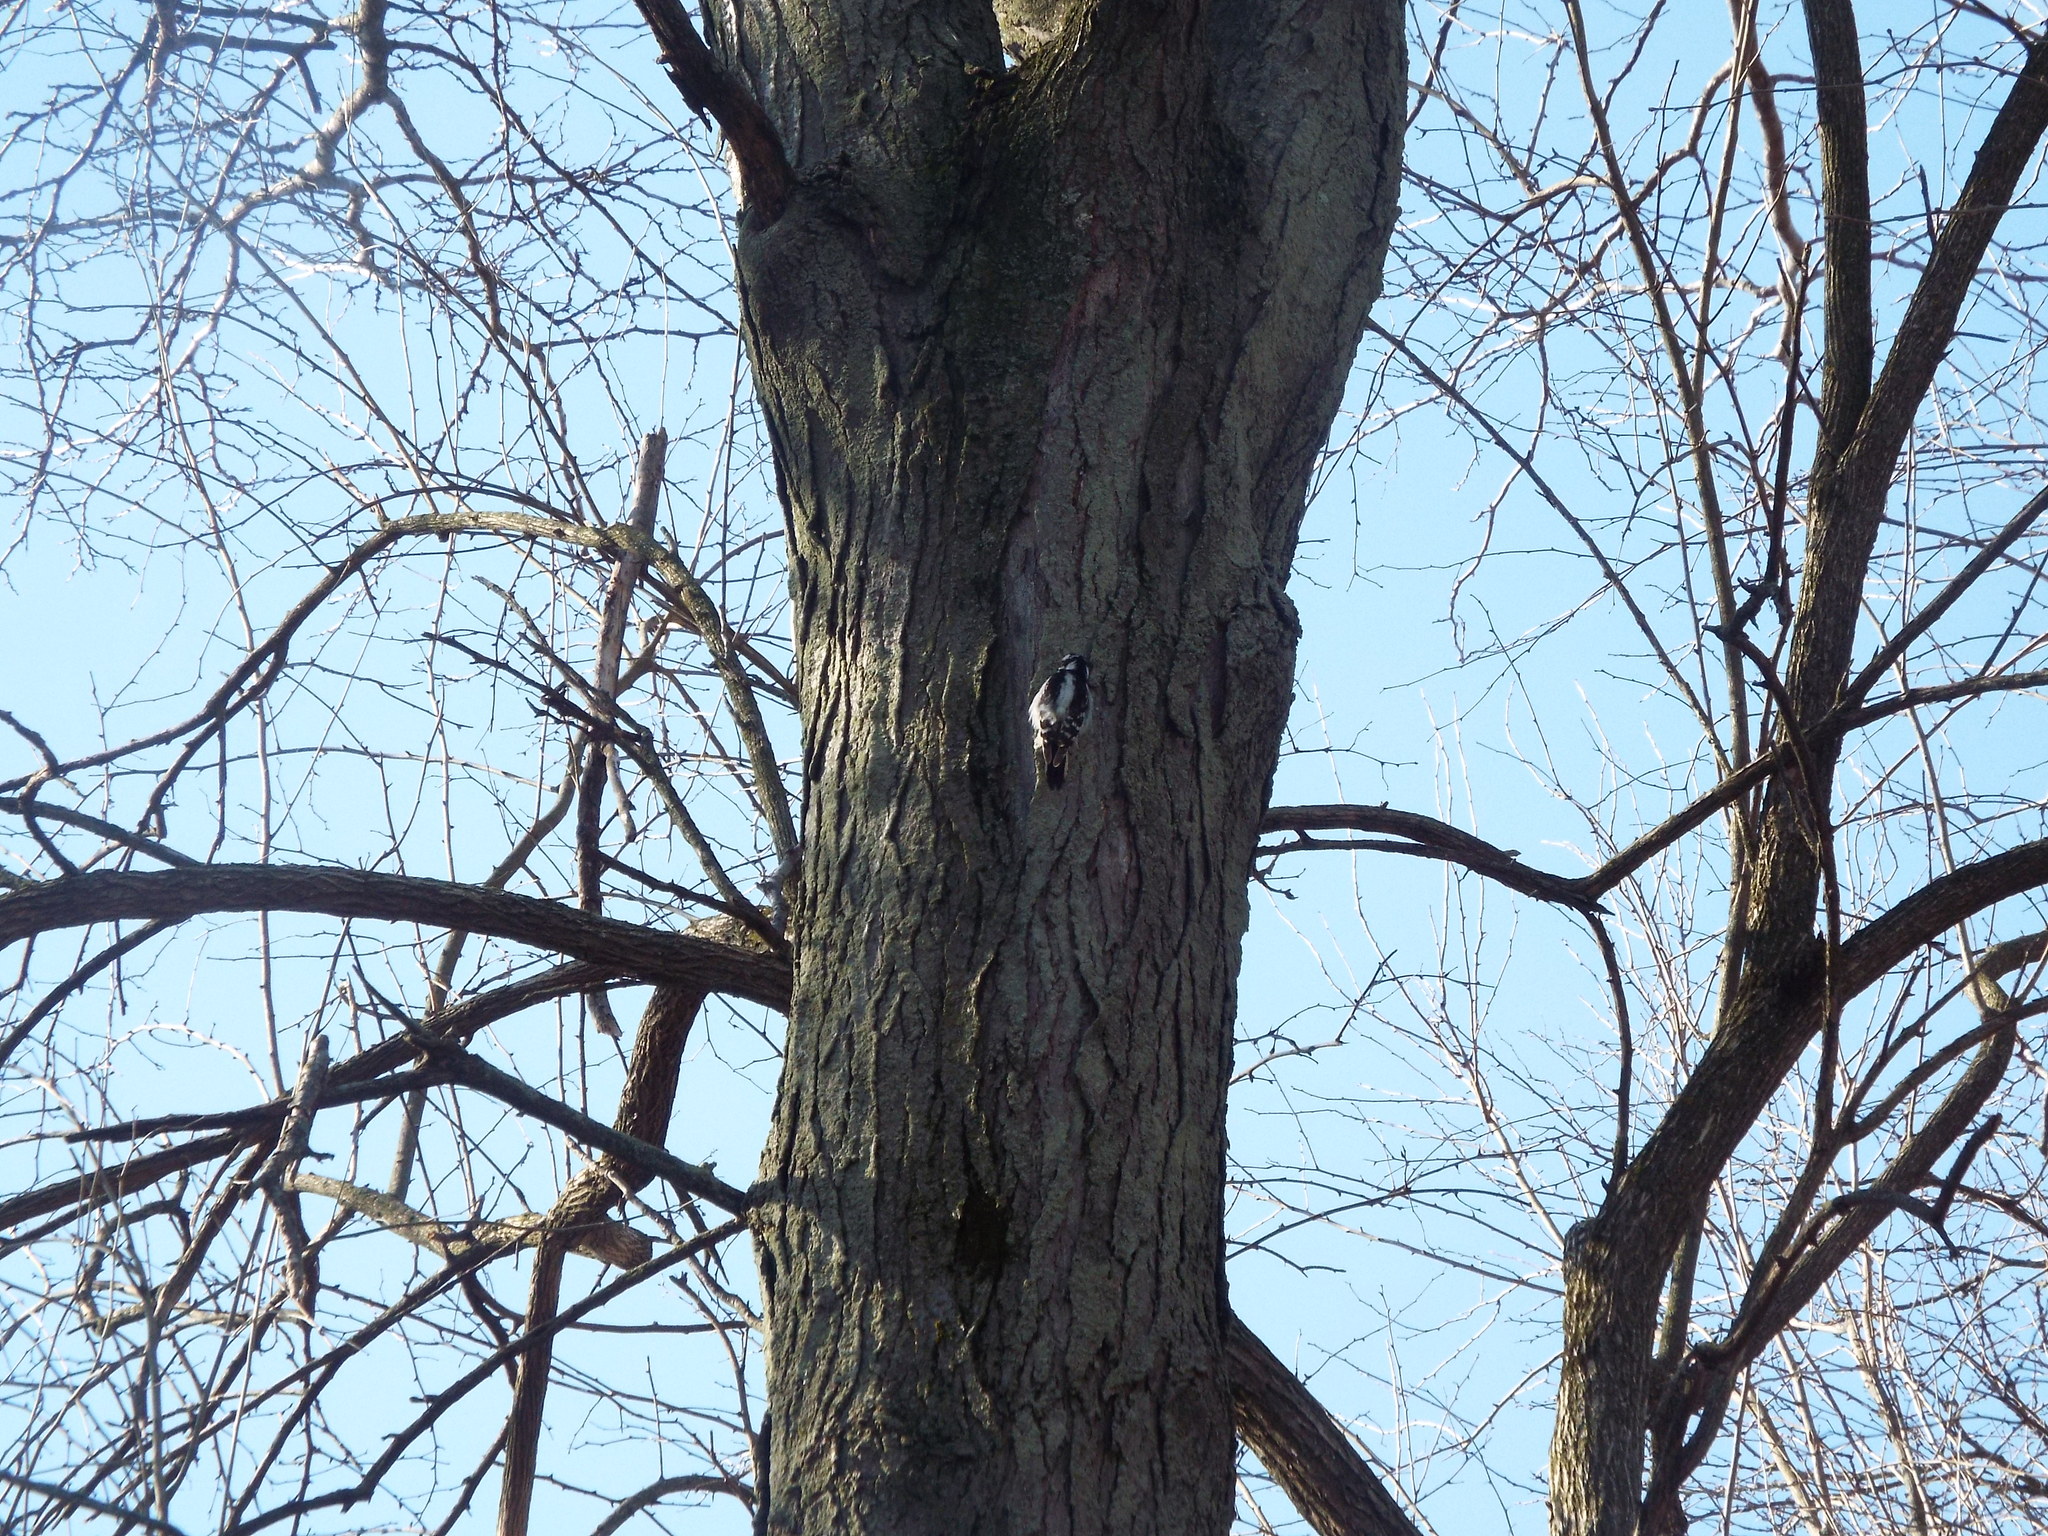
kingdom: Animalia
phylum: Chordata
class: Aves
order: Piciformes
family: Picidae
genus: Dryobates
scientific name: Dryobates pubescens
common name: Downy woodpecker
